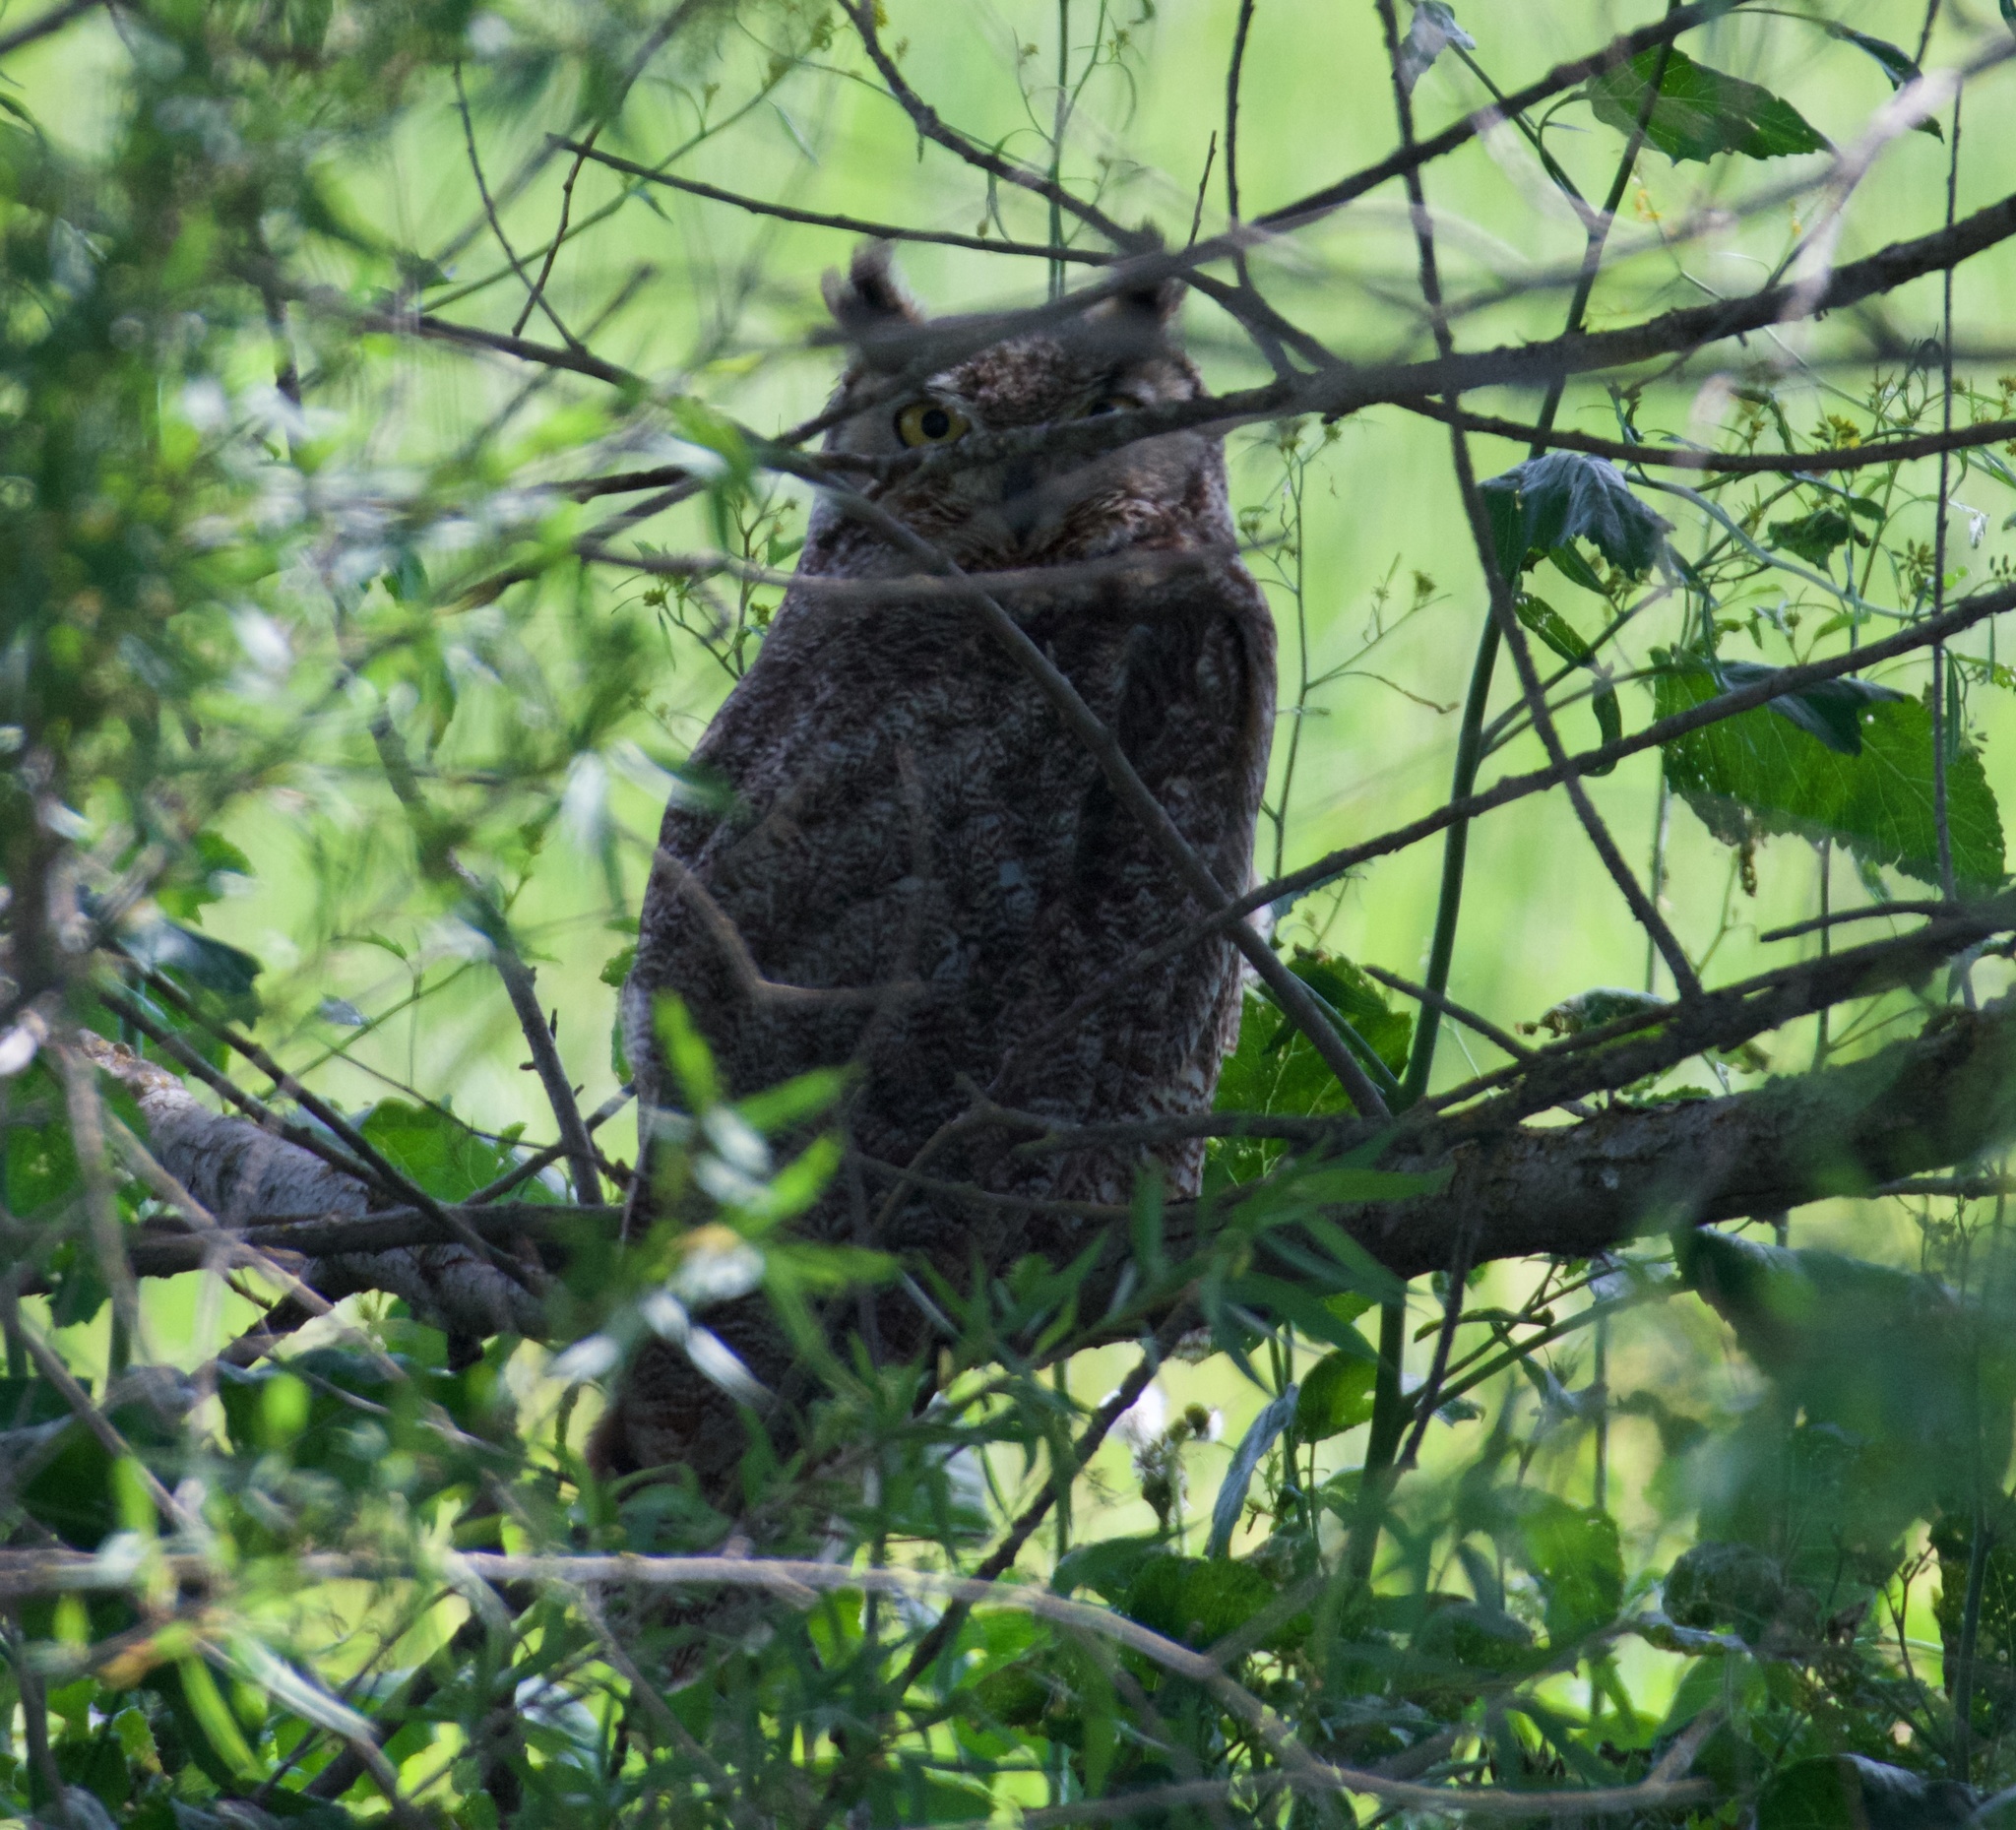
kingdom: Animalia
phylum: Chordata
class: Aves
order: Strigiformes
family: Strigidae
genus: Bubo
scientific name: Bubo virginianus
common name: Great horned owl
